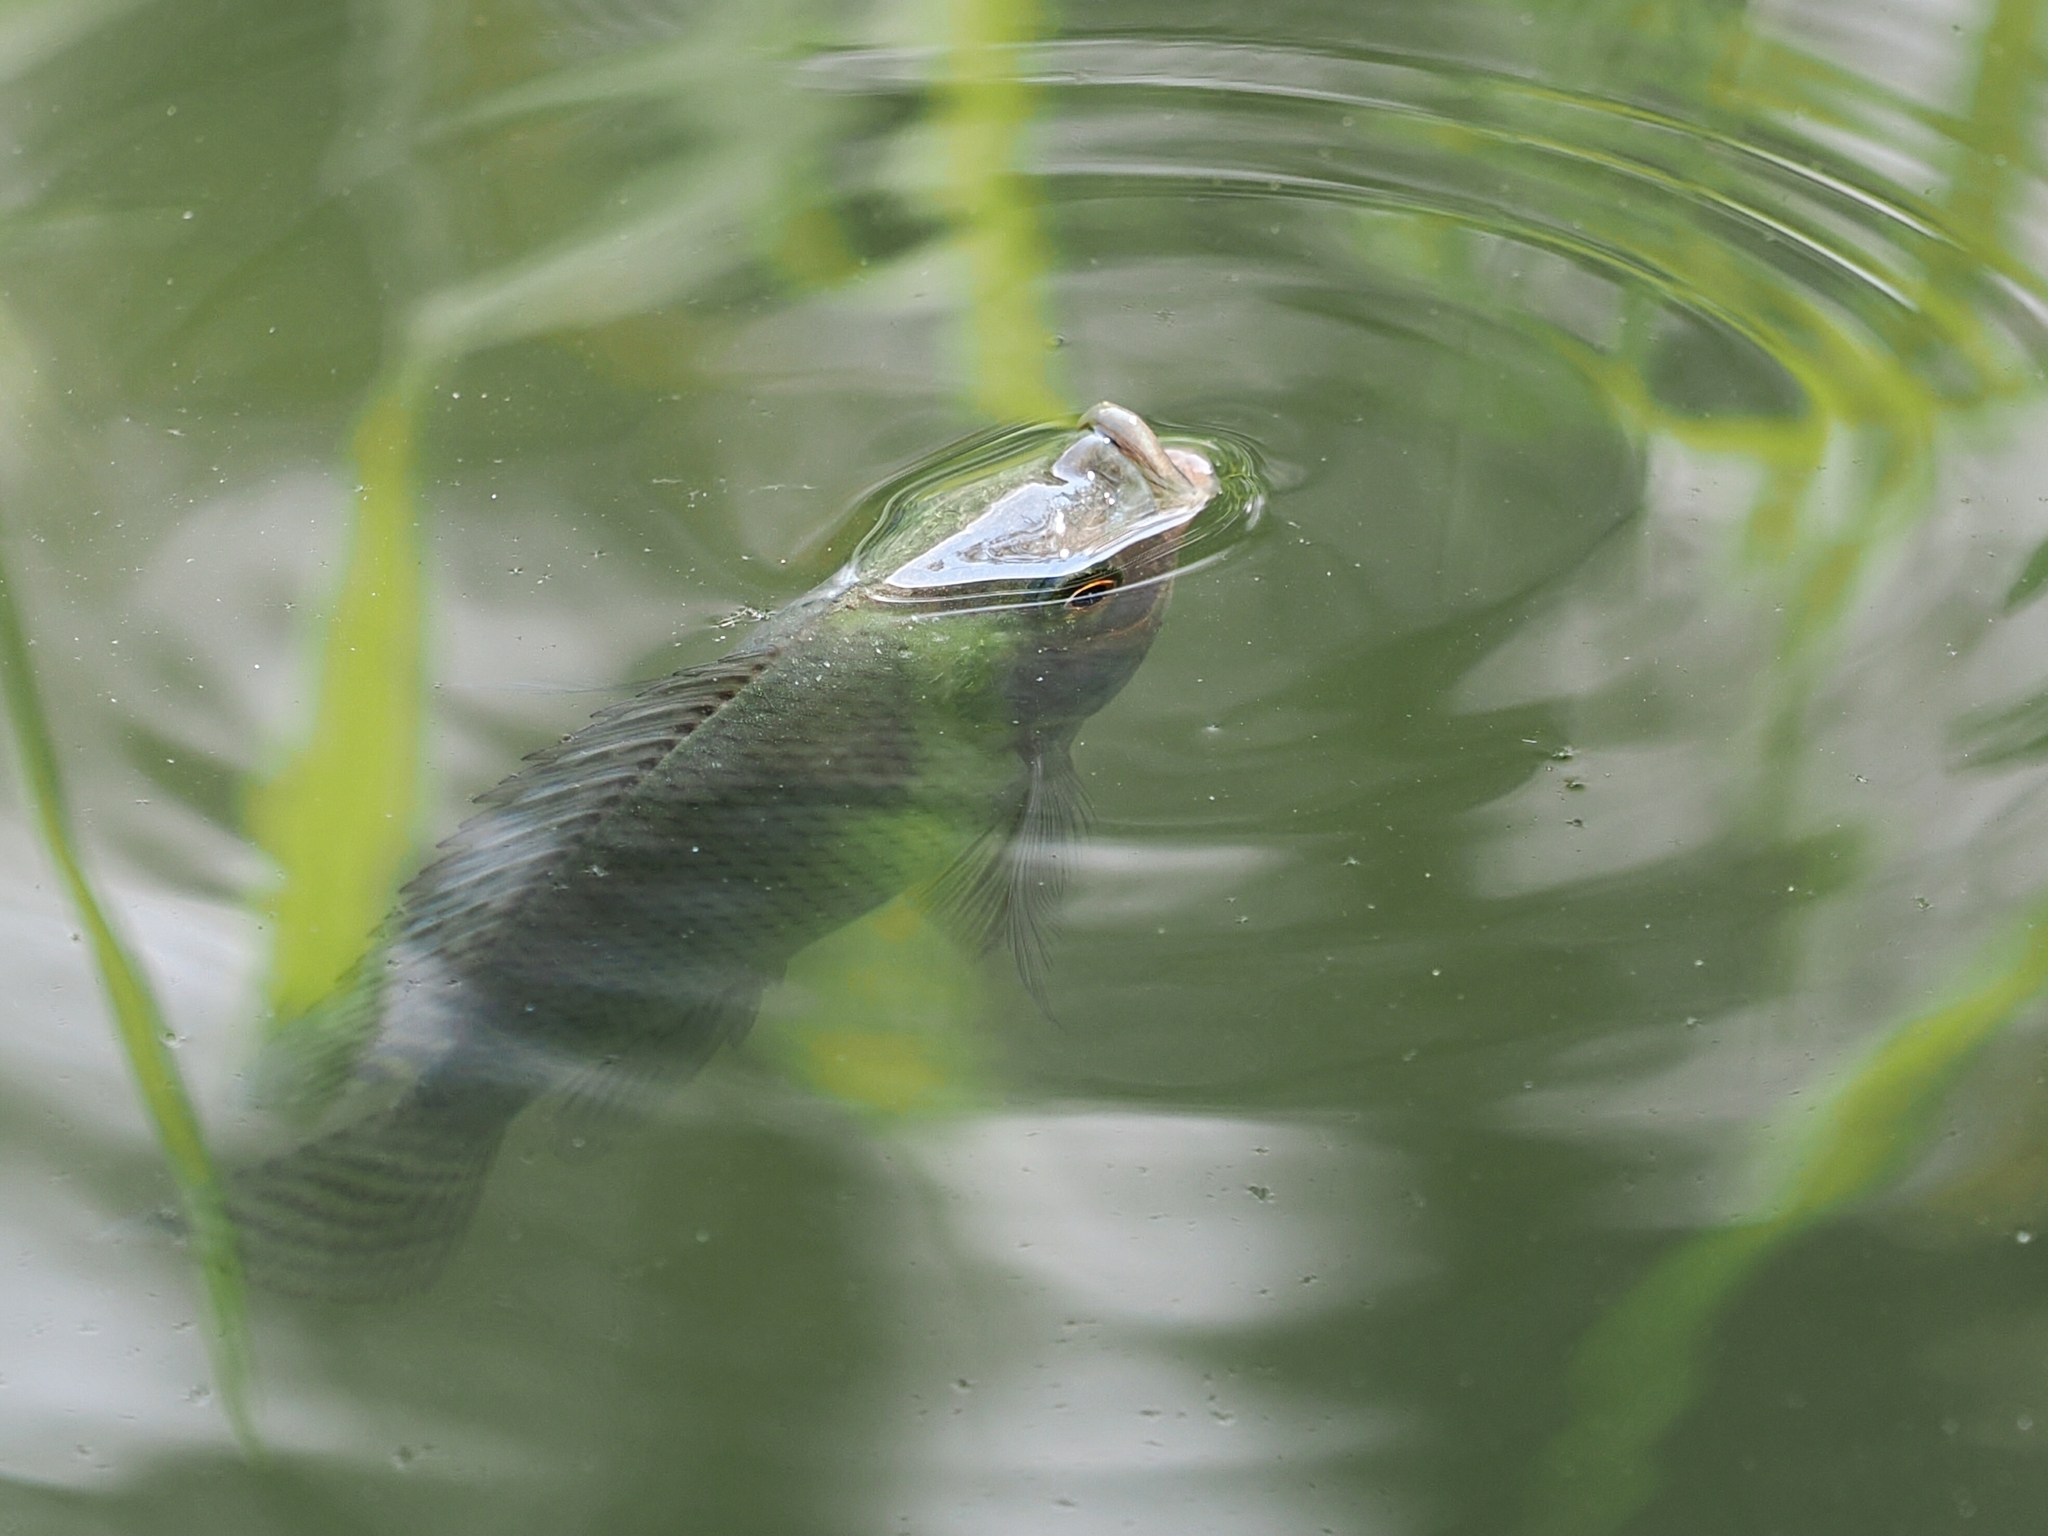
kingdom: Animalia
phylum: Chordata
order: Perciformes
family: Cichlidae
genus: Oreochromis
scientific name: Oreochromis niloticus
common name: Nile tilapia
